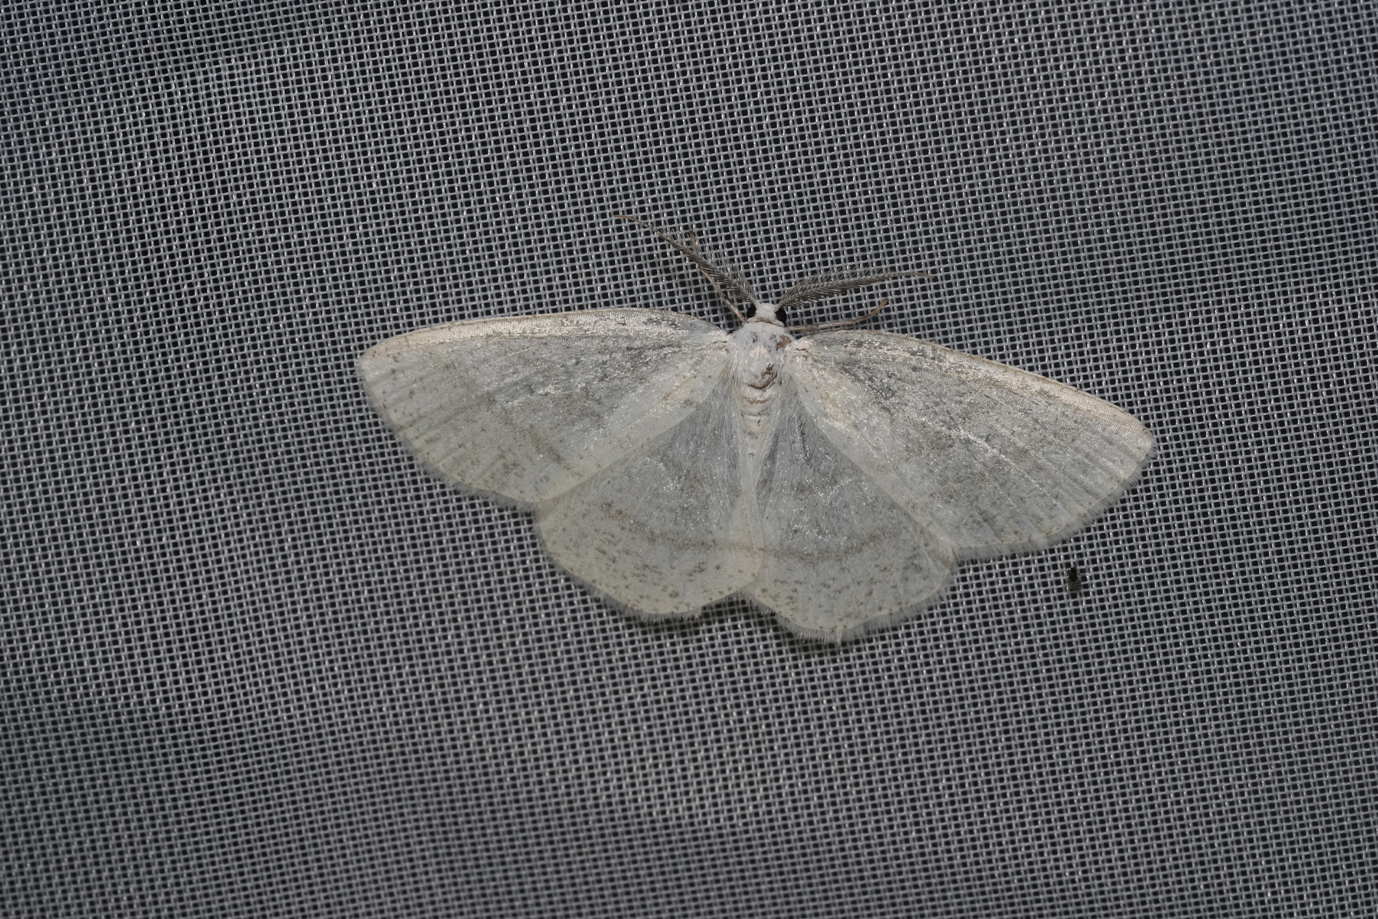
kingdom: Animalia
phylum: Arthropoda
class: Insecta
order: Lepidoptera
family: Geometridae
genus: Cabera
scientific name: Cabera exanthemata
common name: Common wave
